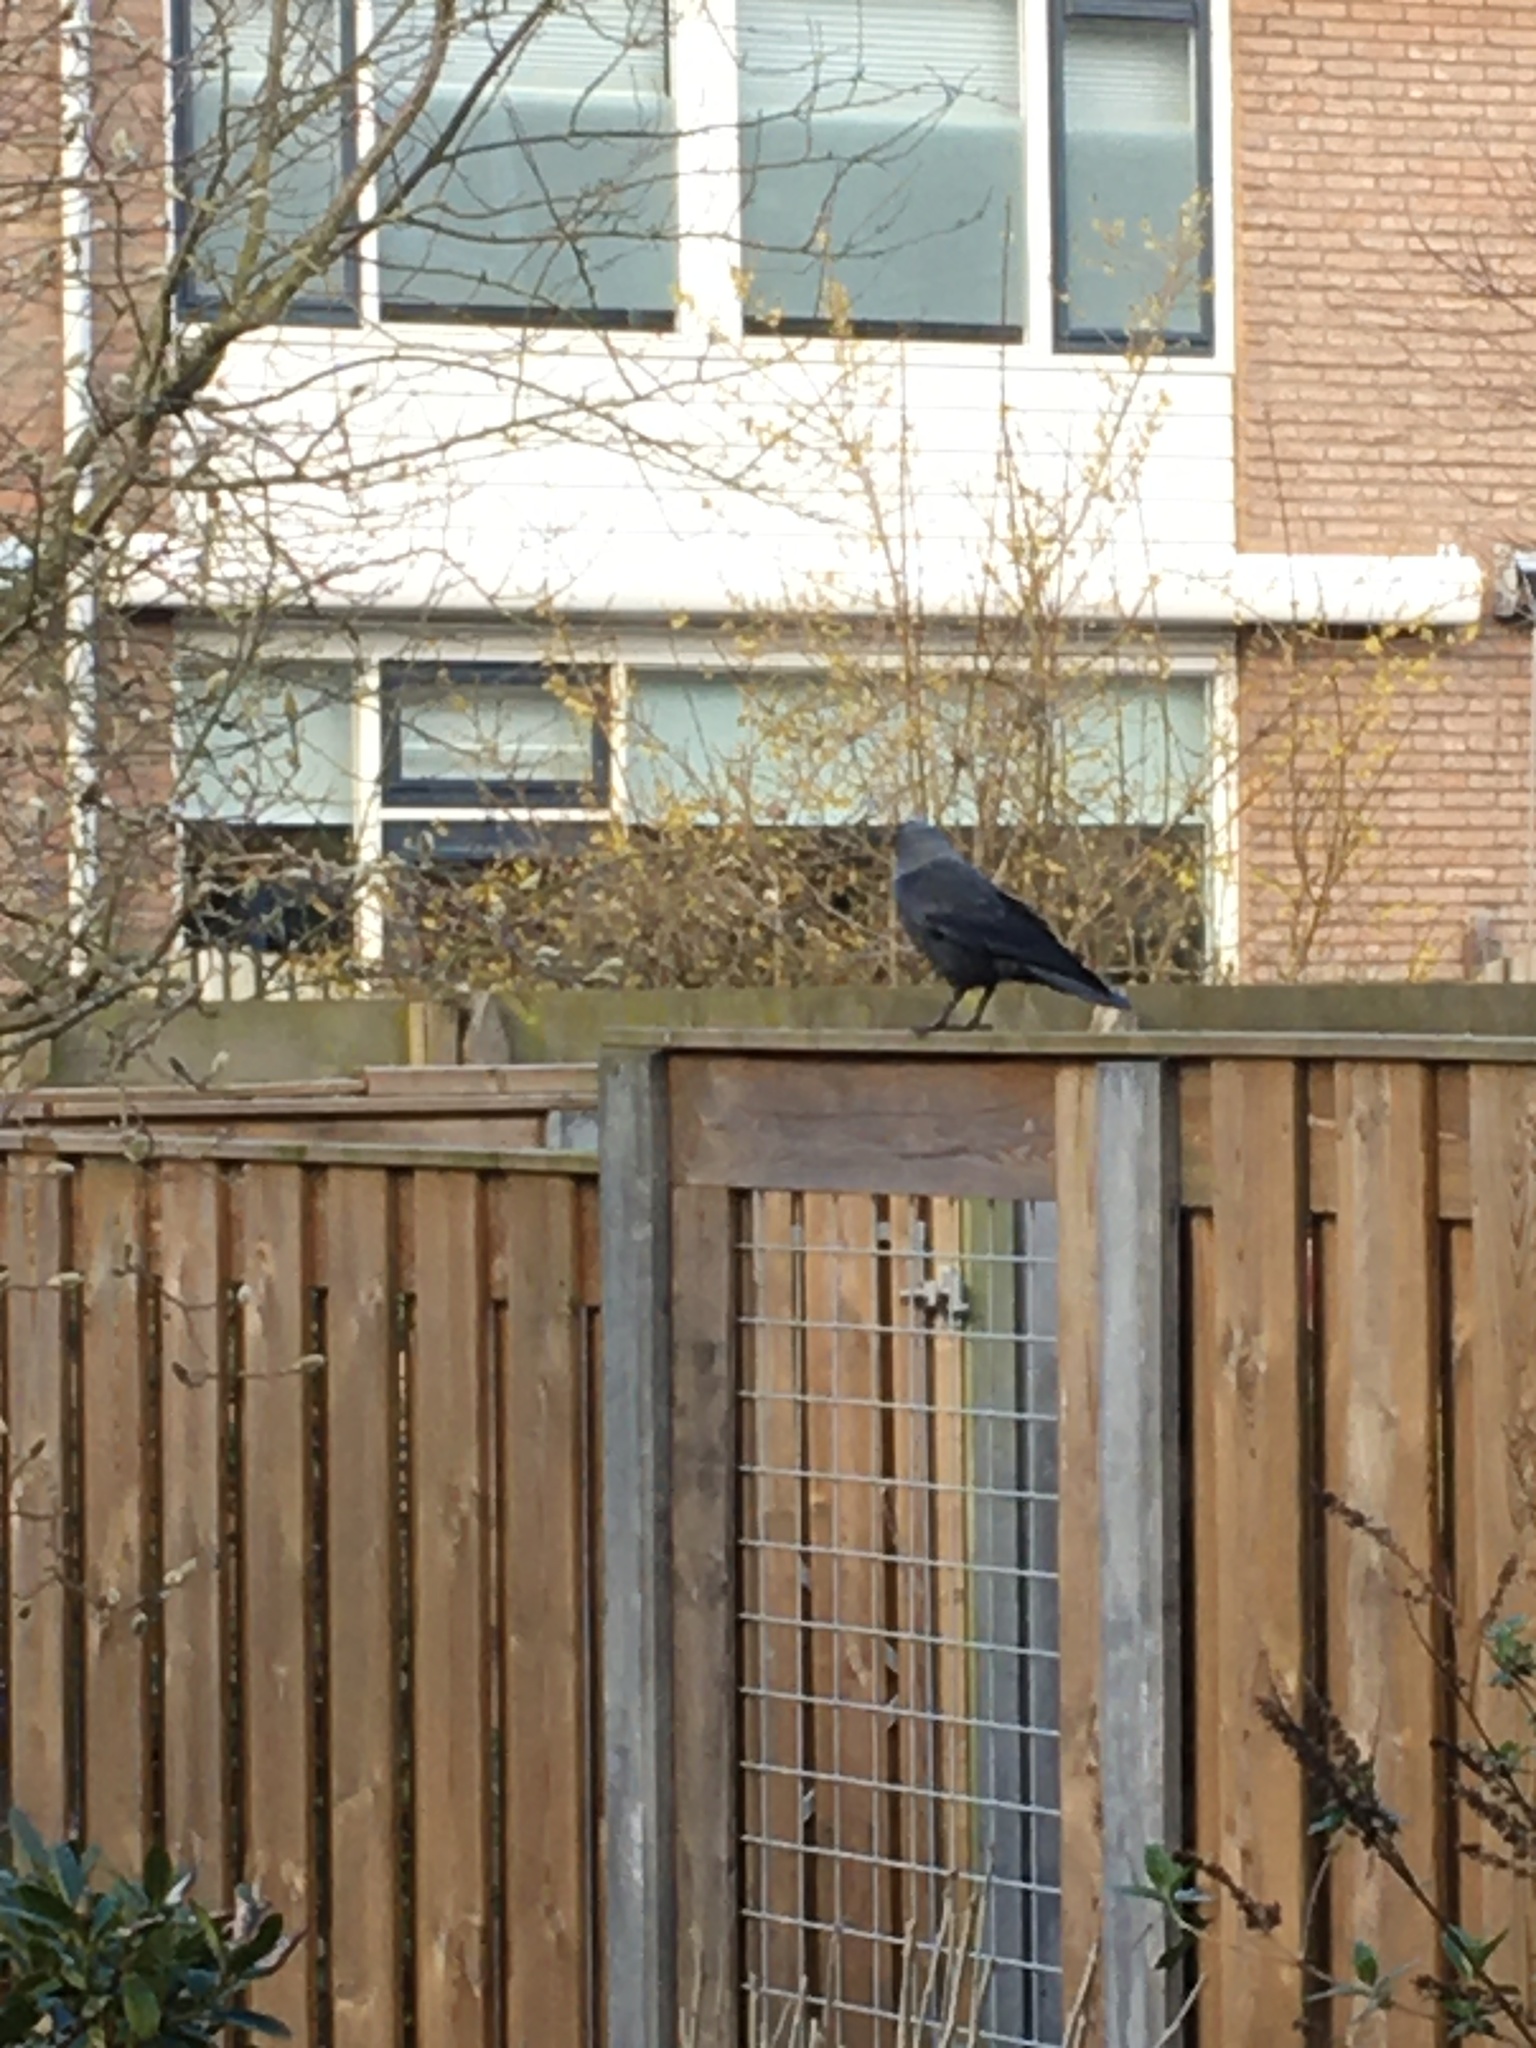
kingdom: Animalia
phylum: Chordata
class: Aves
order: Passeriformes
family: Corvidae
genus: Coloeus
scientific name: Coloeus monedula
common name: Western jackdaw
